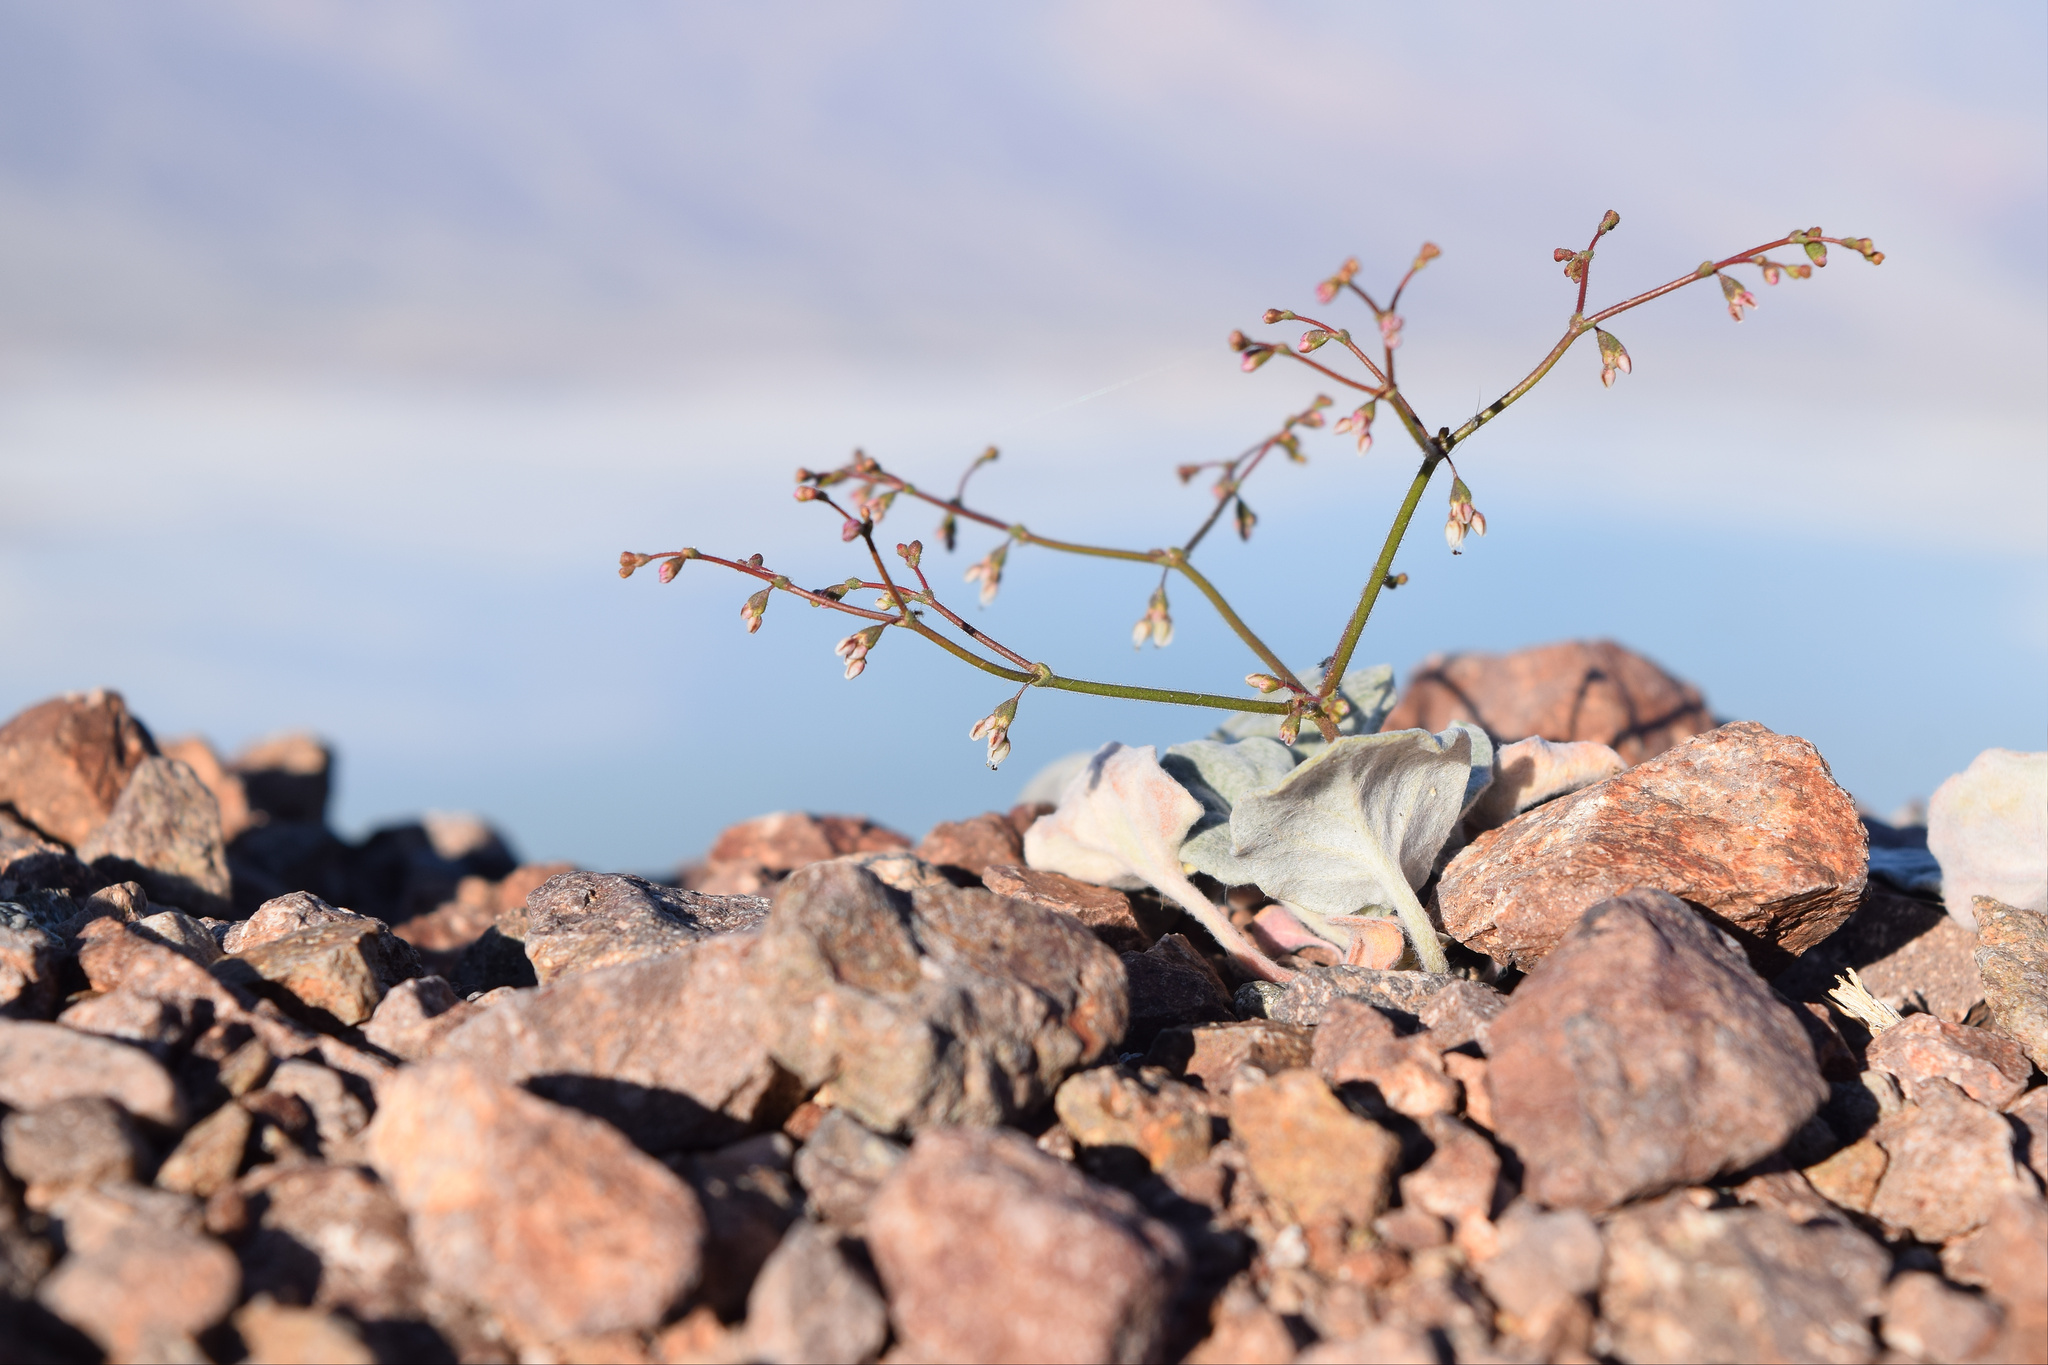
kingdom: Plantae
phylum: Tracheophyta
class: Magnoliopsida
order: Caryophyllales
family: Polygonaceae
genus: Eriogonum
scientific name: Eriogonum brachypodum
